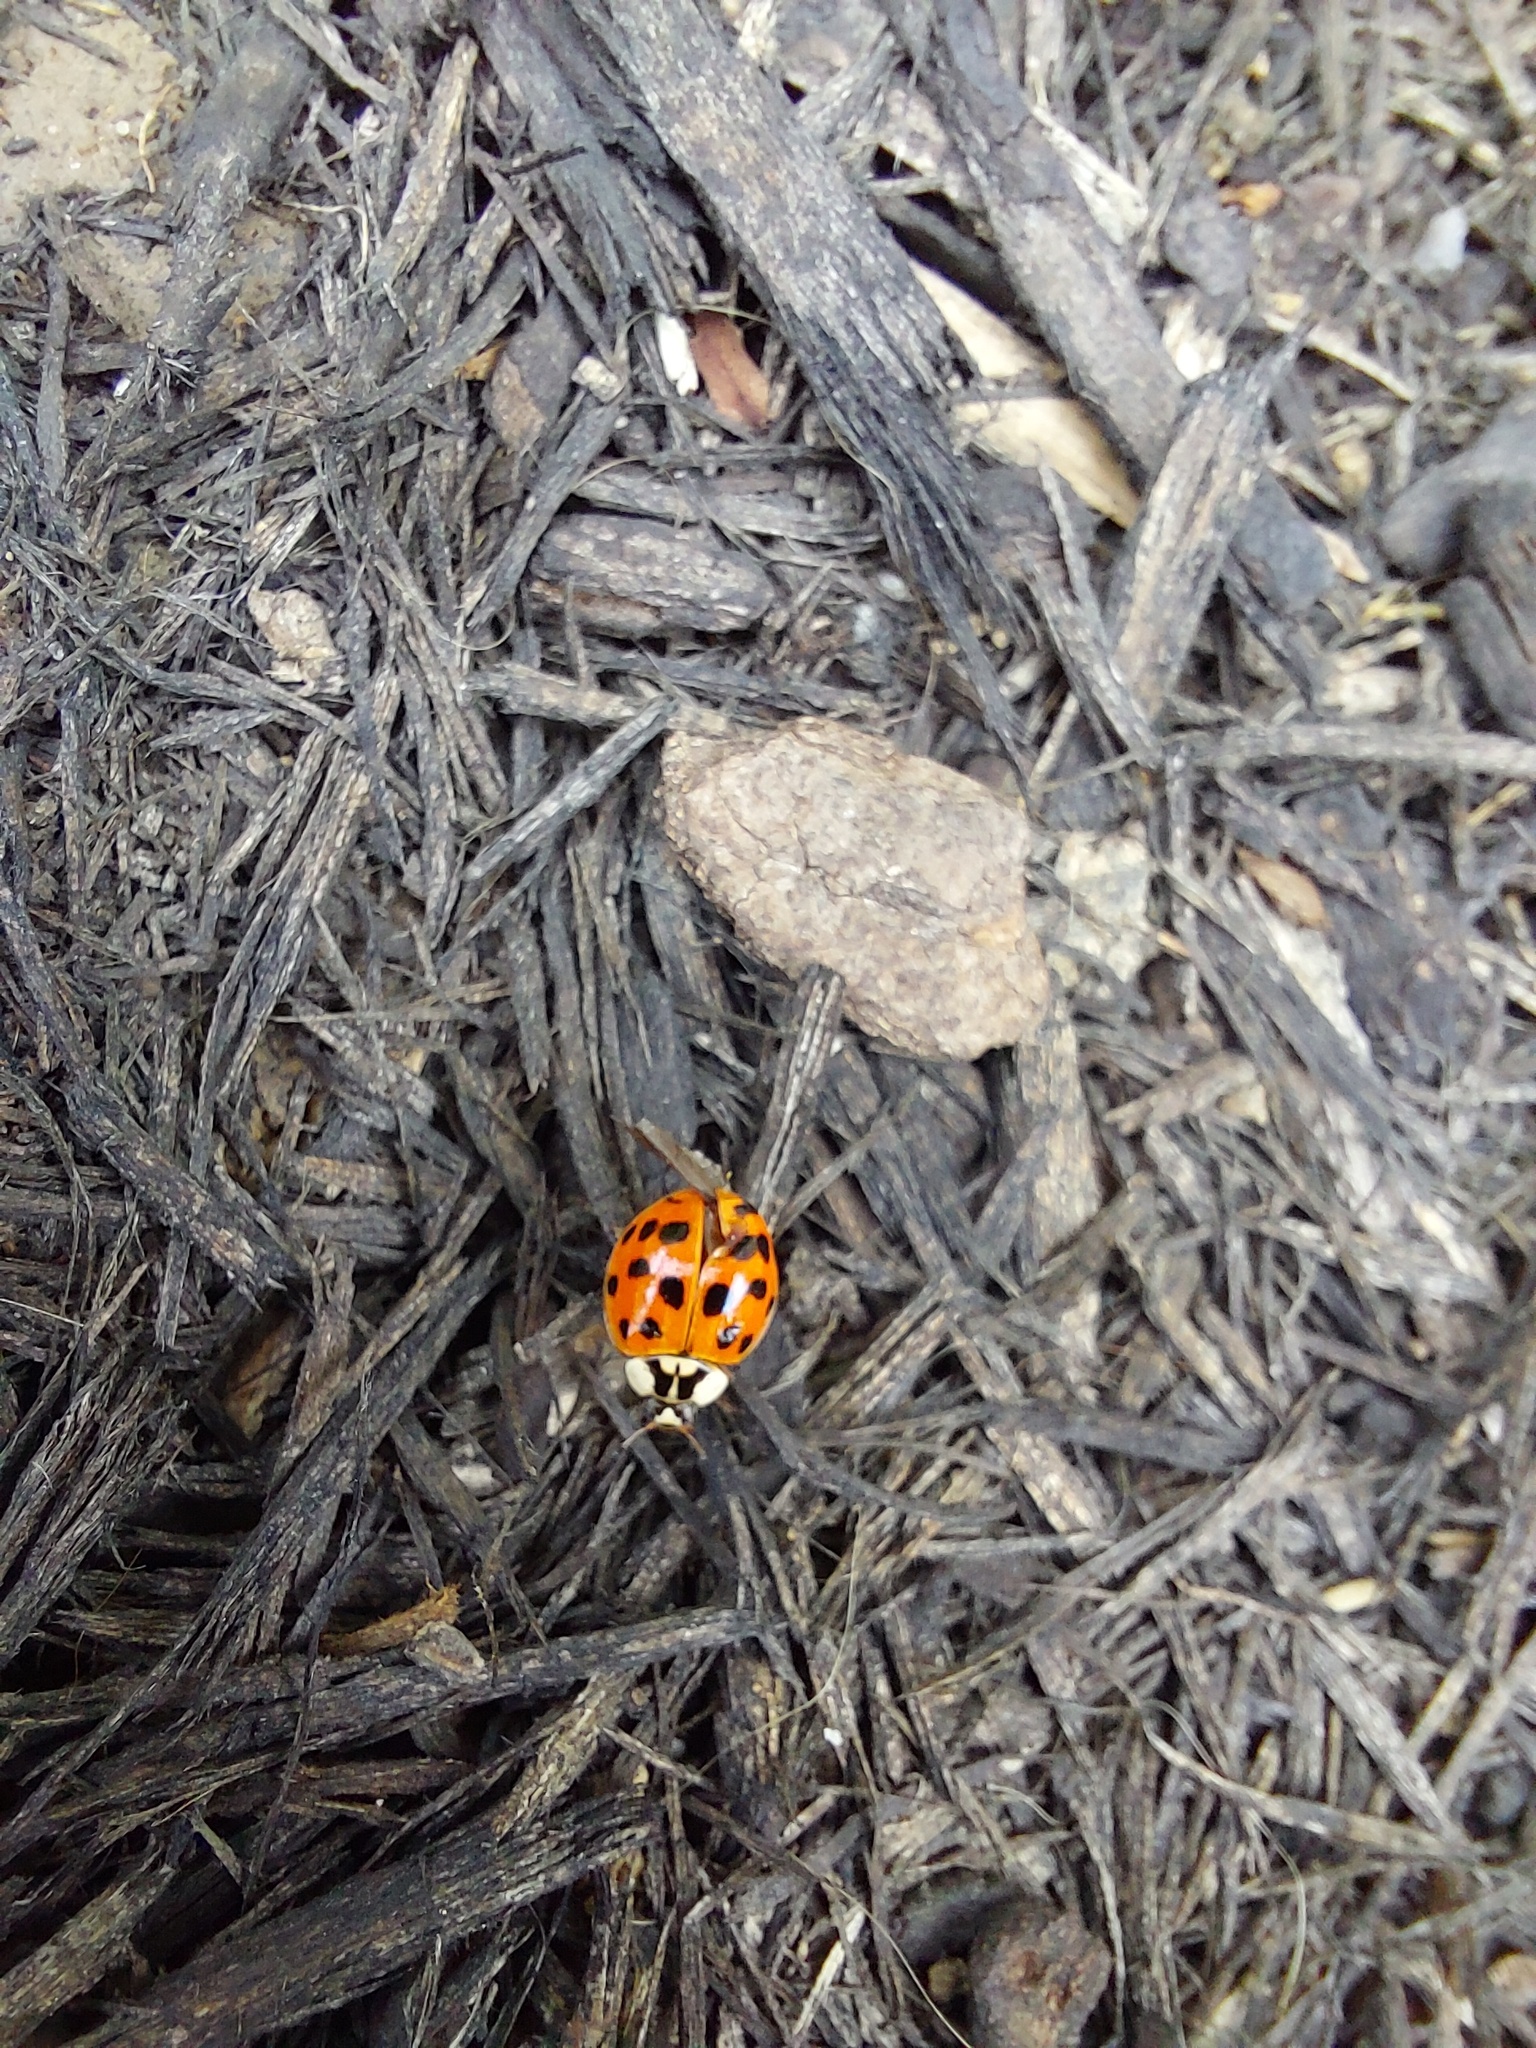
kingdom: Animalia
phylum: Arthropoda
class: Insecta
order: Coleoptera
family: Coccinellidae
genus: Harmonia
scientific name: Harmonia axyridis
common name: Harlequin ladybird
